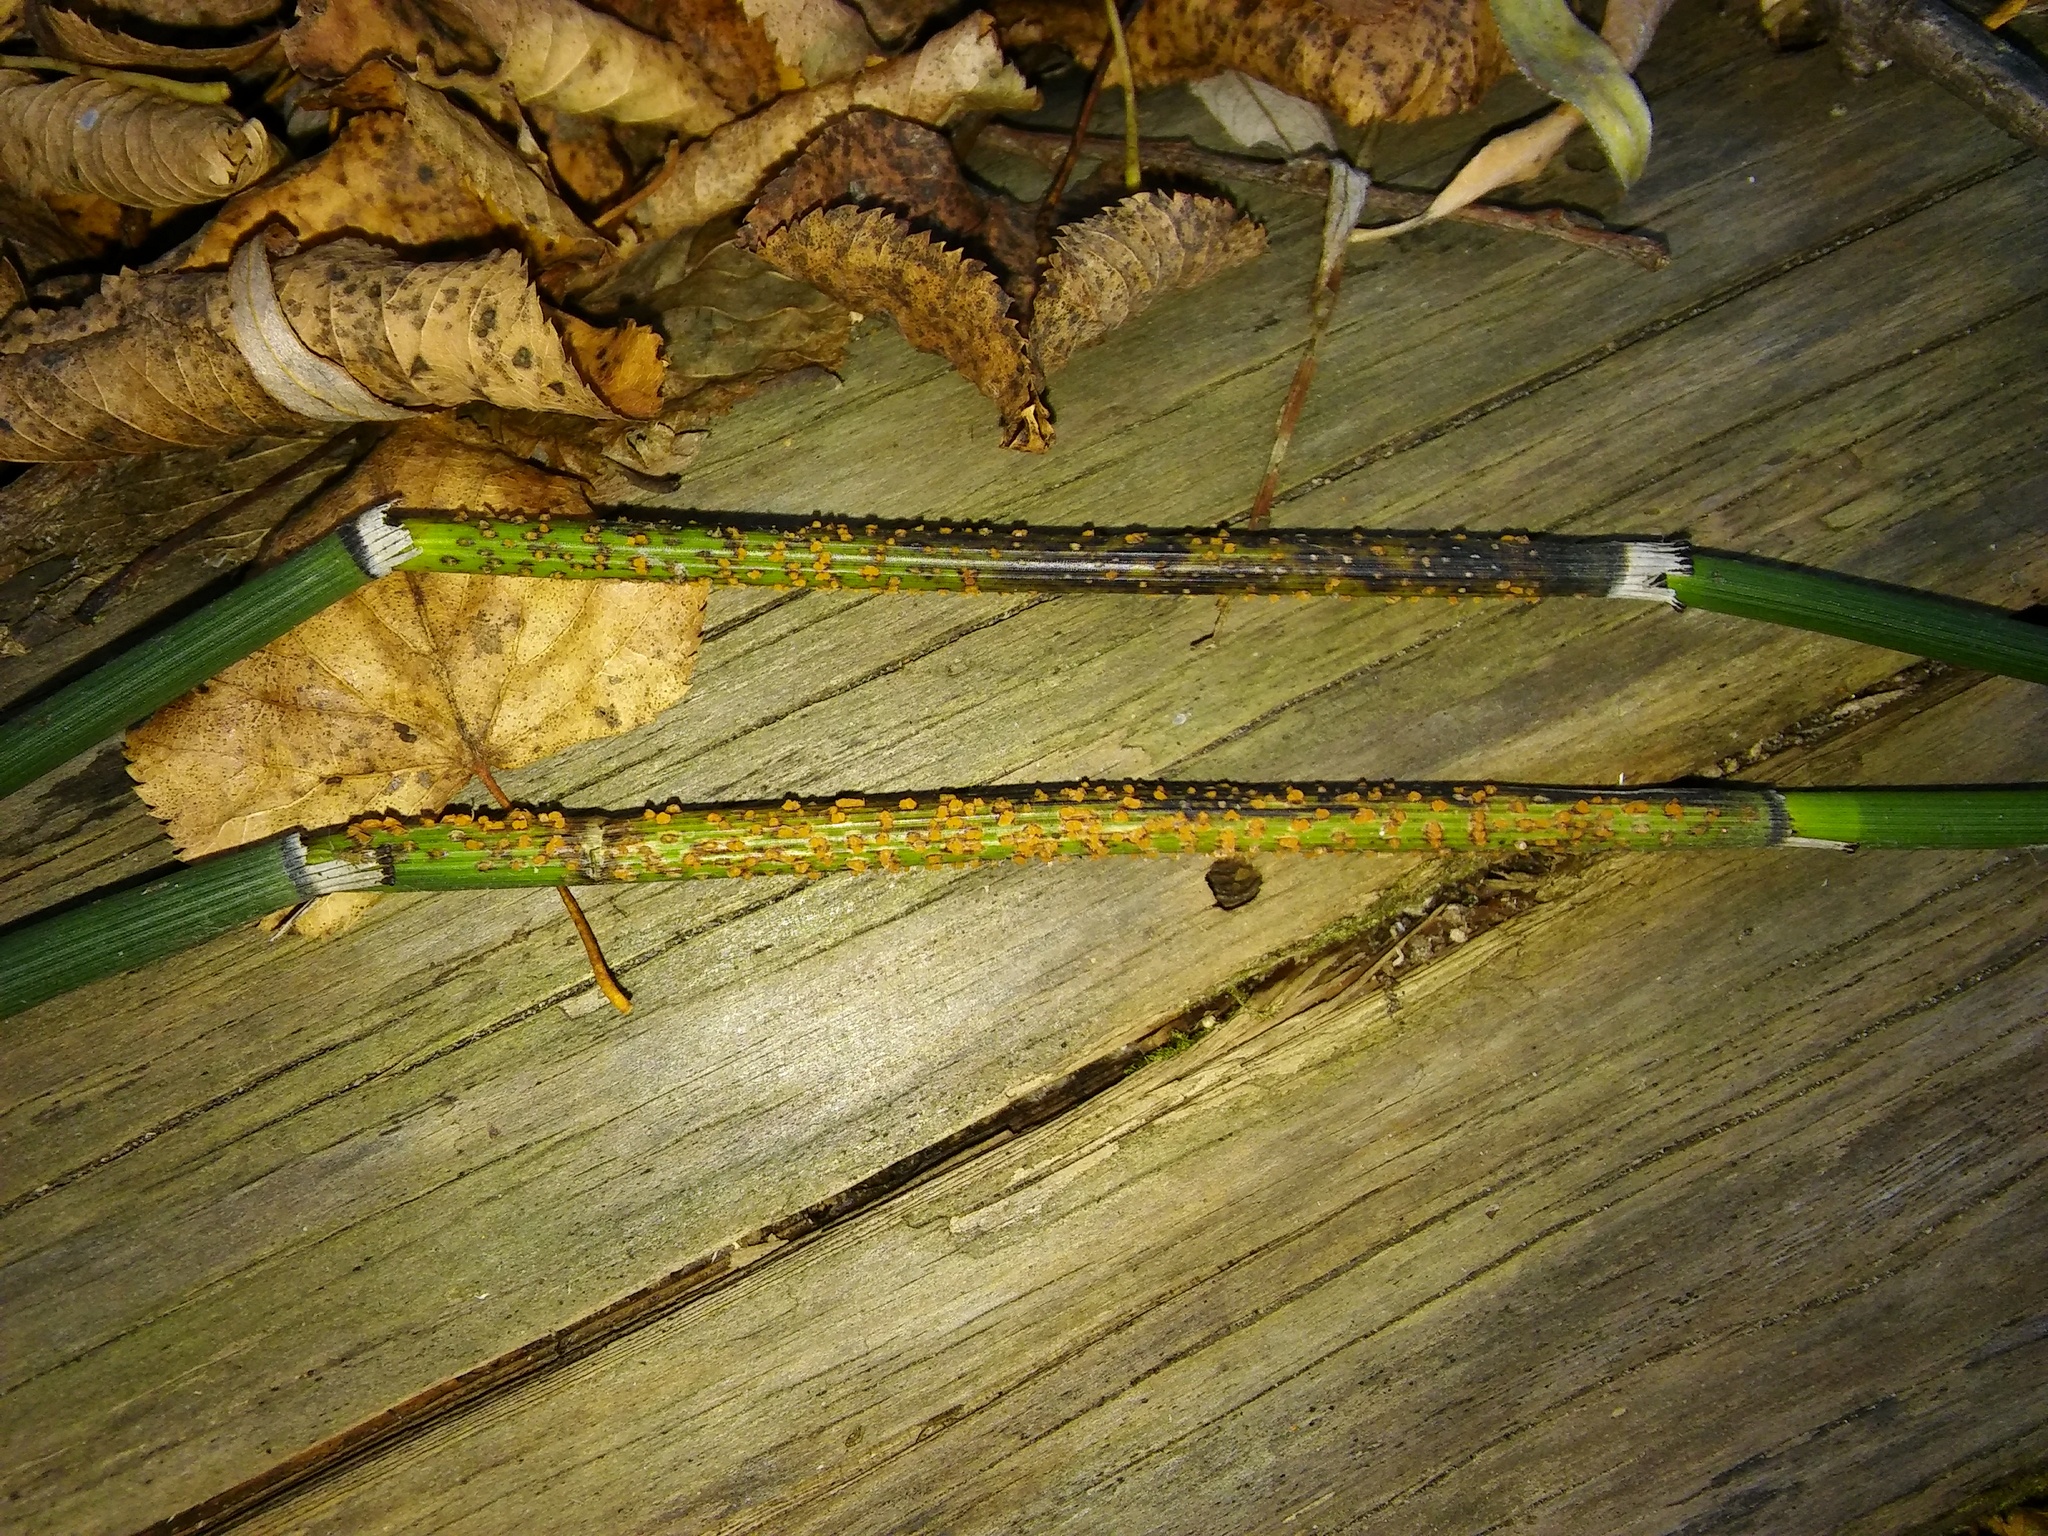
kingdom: Fungi
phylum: Ascomycota
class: Leotiomycetes
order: Helotiales
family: Helotiaceae
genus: Stamnaria
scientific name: Stamnaria americana
